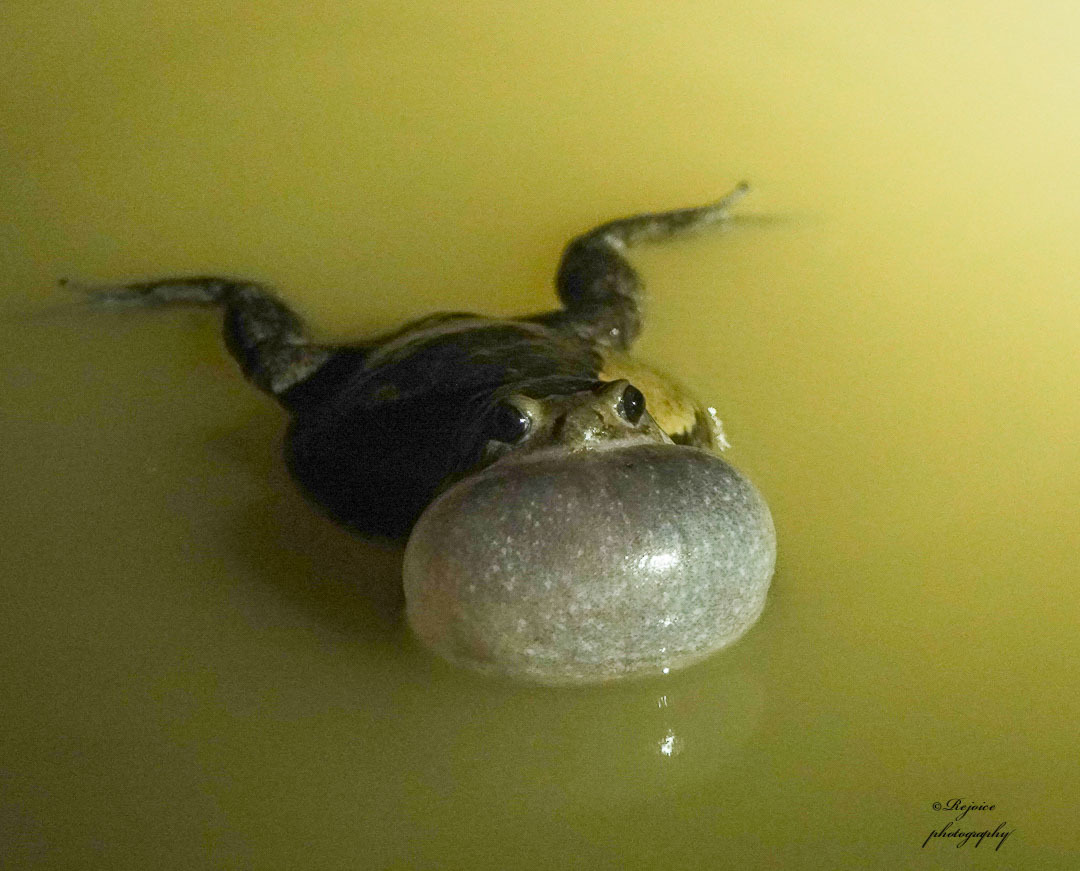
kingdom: Animalia
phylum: Chordata
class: Amphibia
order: Anura
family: Microhylidae
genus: Kaloula
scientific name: Kaloula pulchra
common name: Common,banded bullfrog
